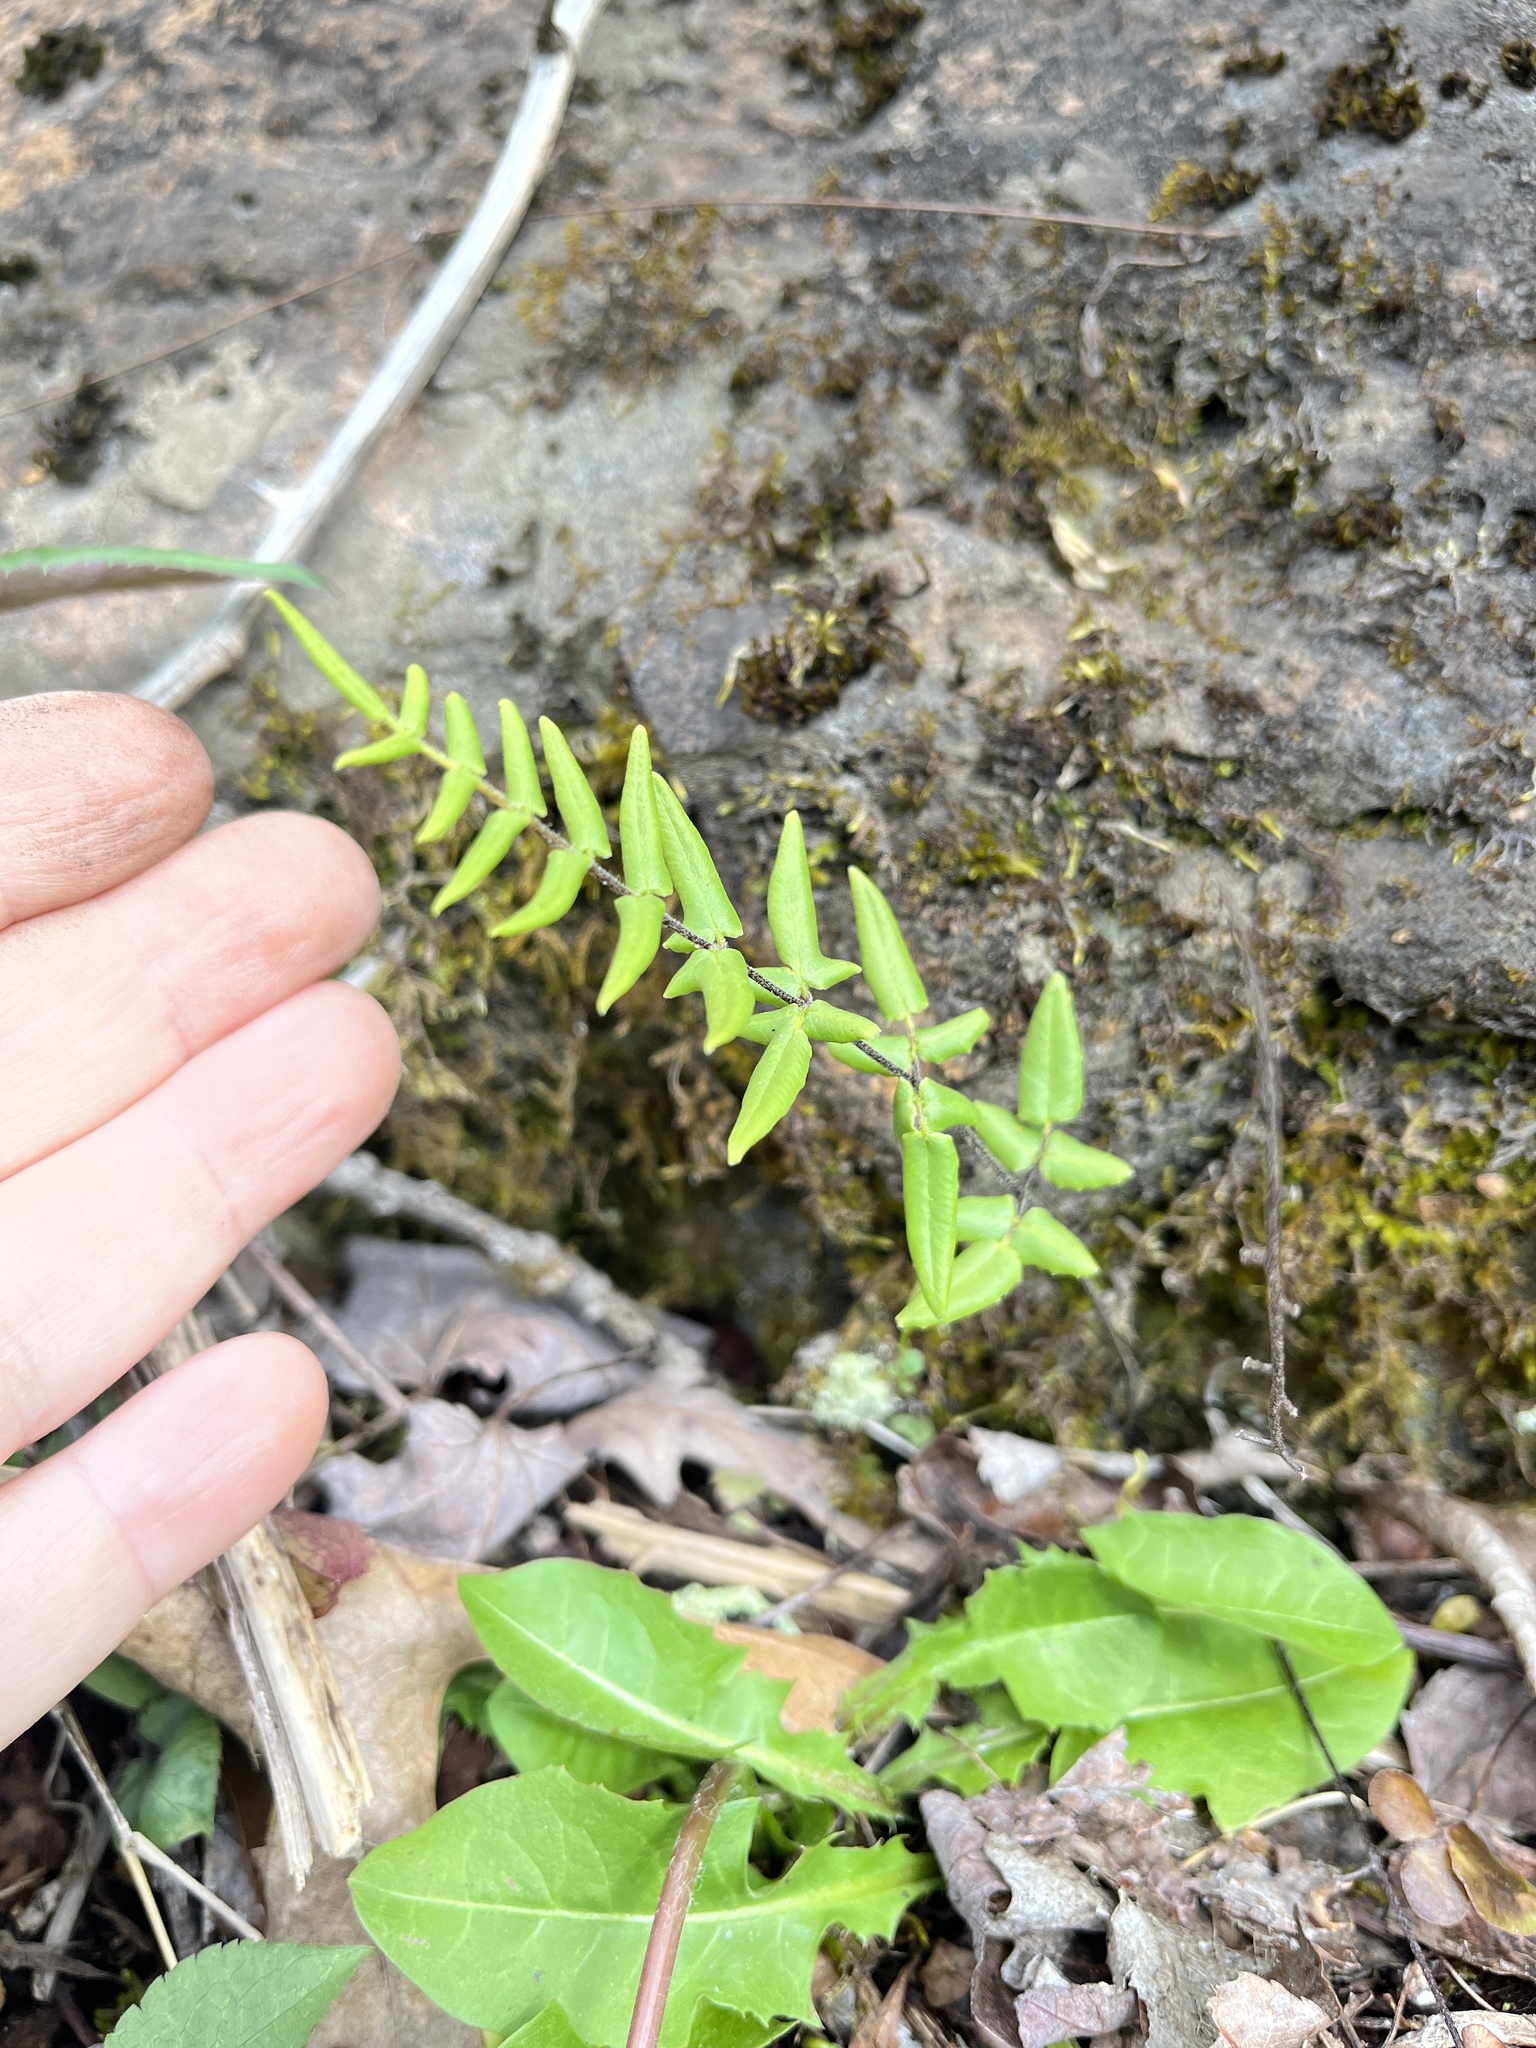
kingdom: Plantae
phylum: Tracheophyta
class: Polypodiopsida
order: Polypodiales
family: Pteridaceae
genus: Pellaea
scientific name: Pellaea atropurpurea
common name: Hairy cliffbrake
